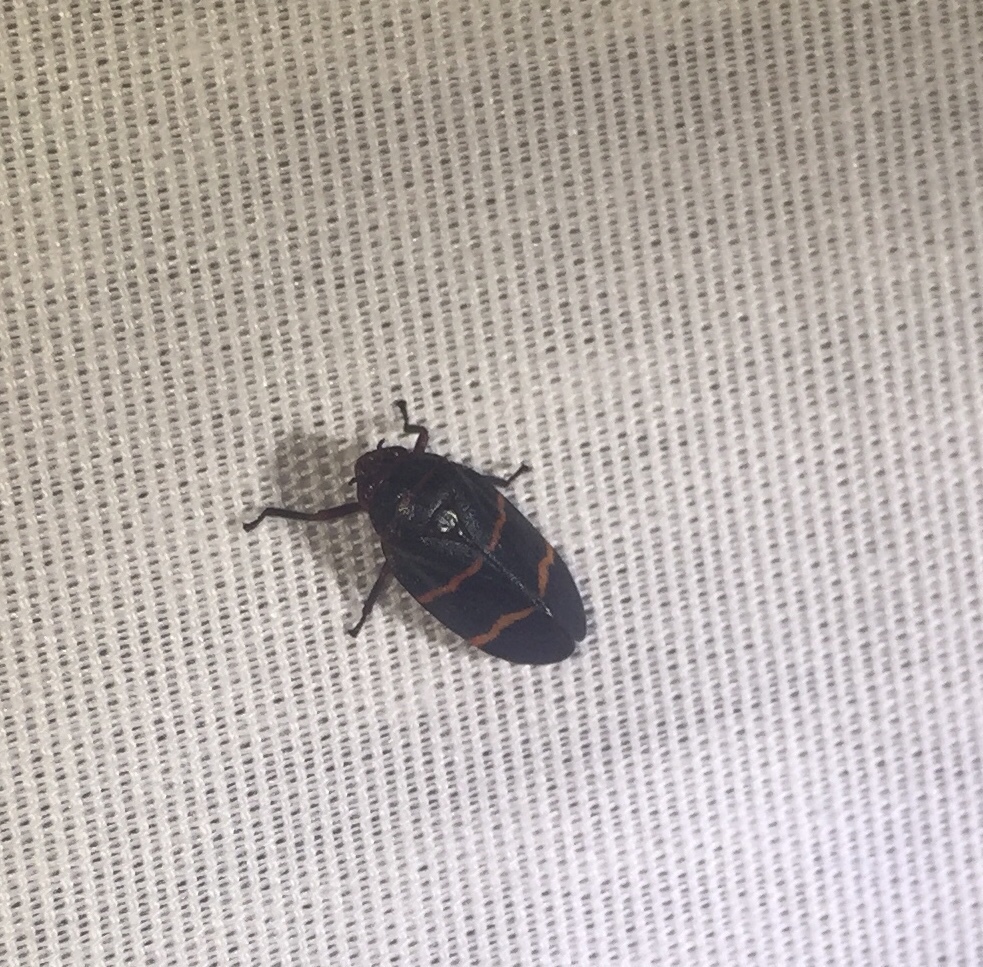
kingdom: Animalia
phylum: Arthropoda
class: Insecta
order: Hemiptera
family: Cercopidae
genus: Prosapia
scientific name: Prosapia bicincta
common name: Twolined spittlebug
